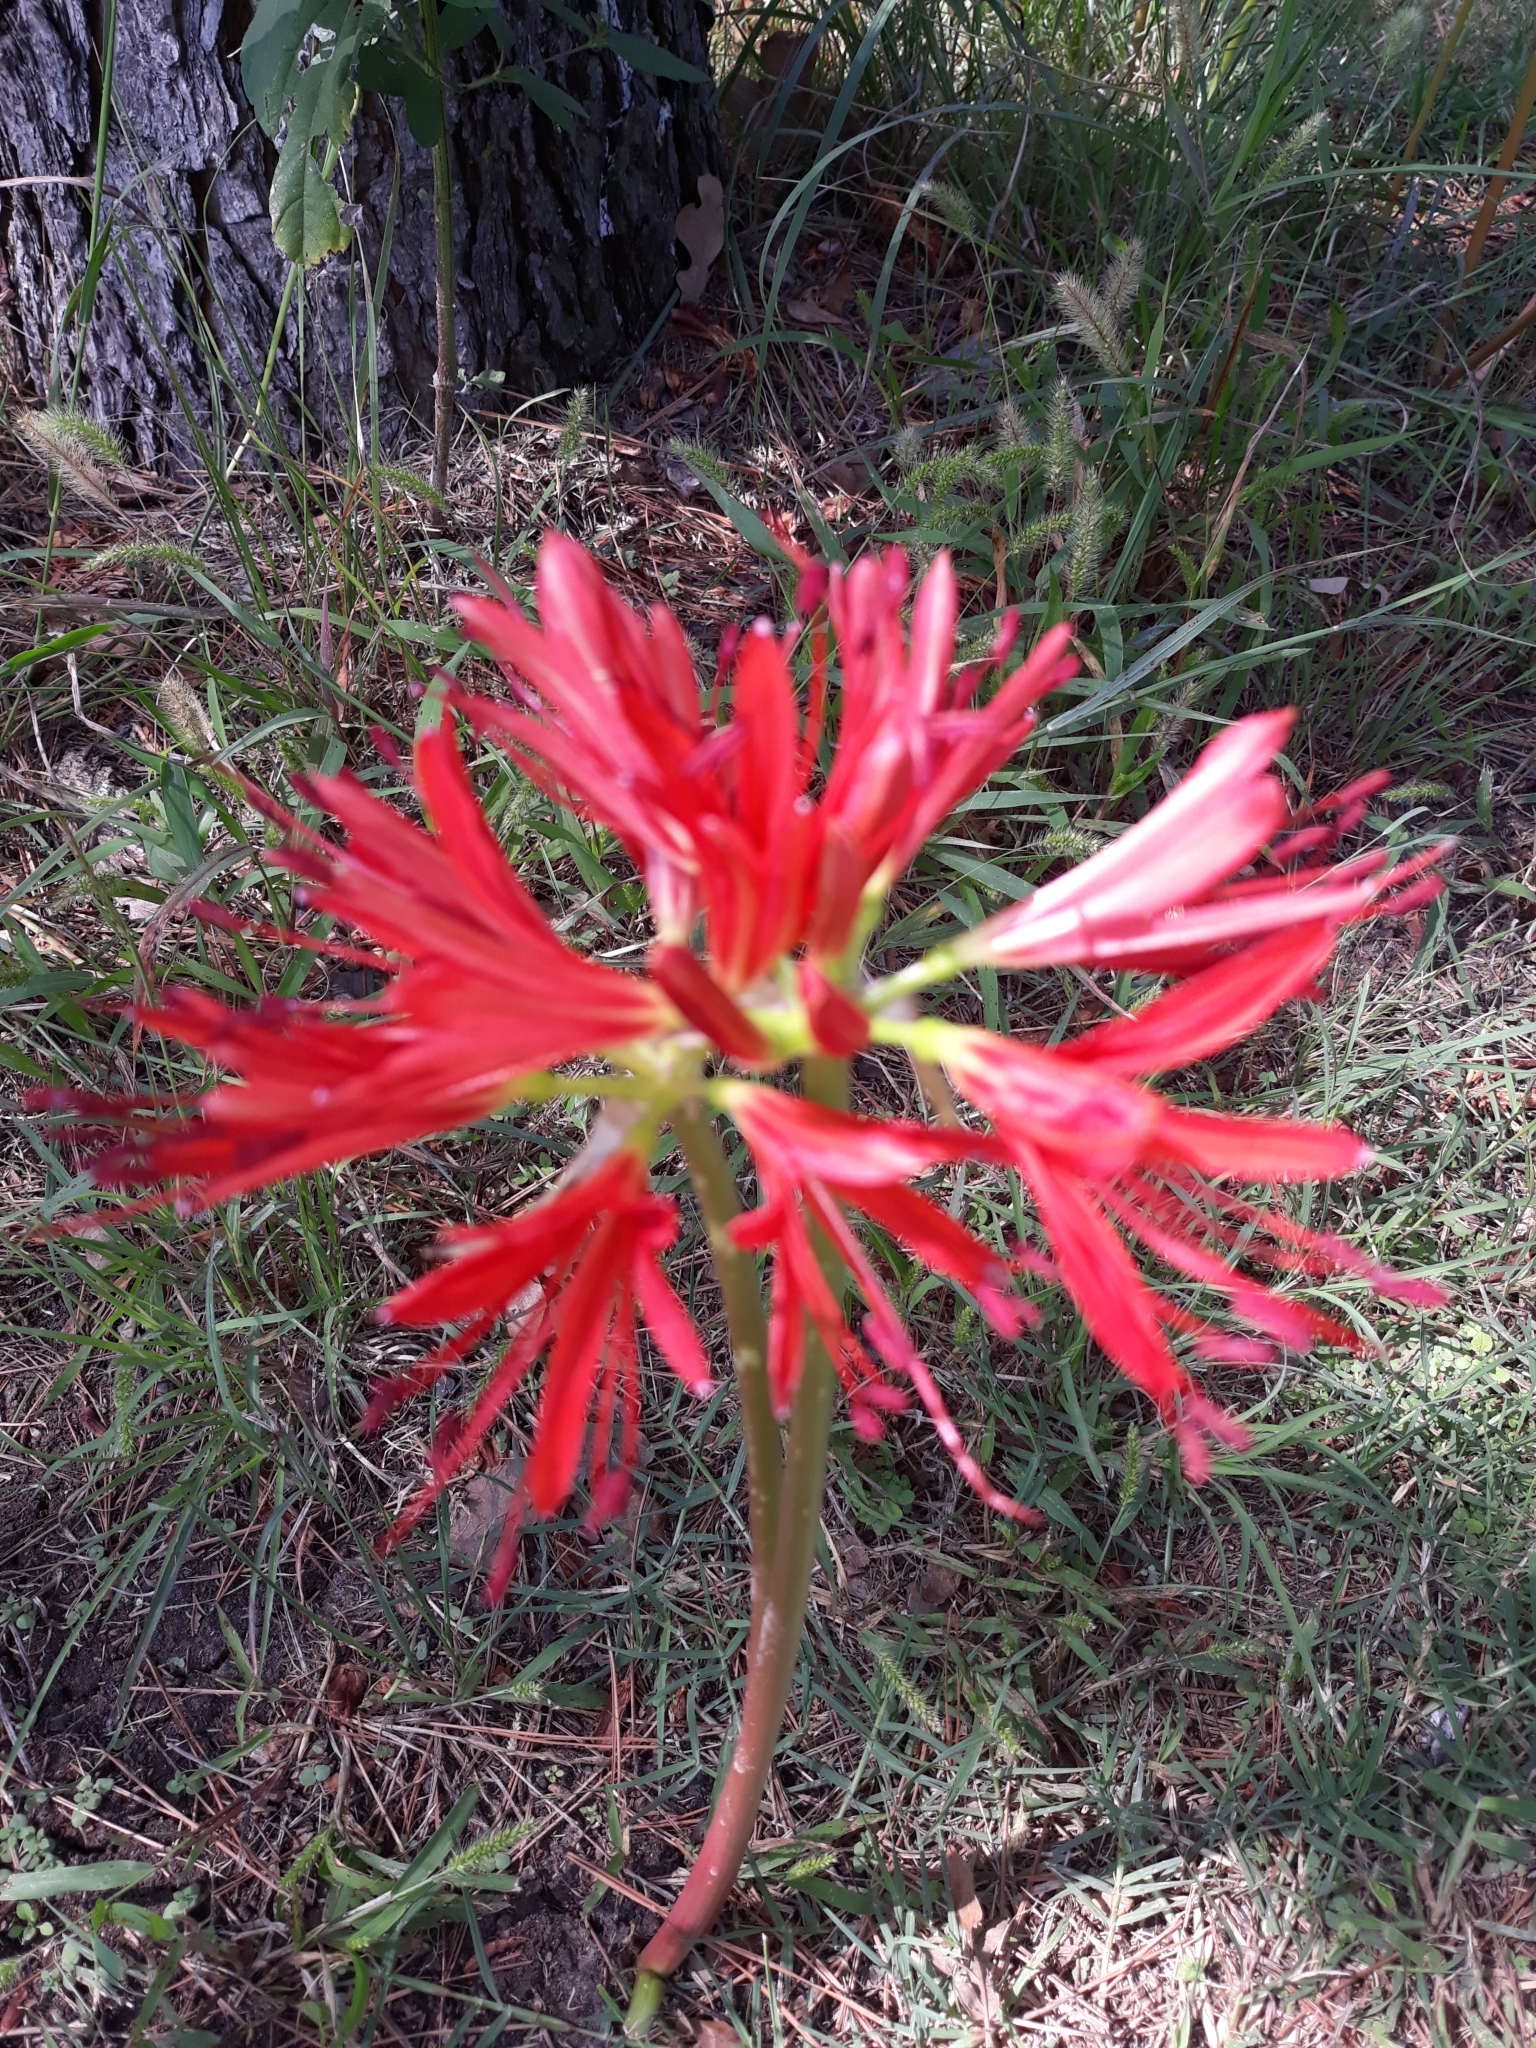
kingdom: Plantae
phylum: Tracheophyta
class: Liliopsida
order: Asparagales
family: Amaryllidaceae
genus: Lycoris
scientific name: Lycoris radiata
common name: Red spider lily
